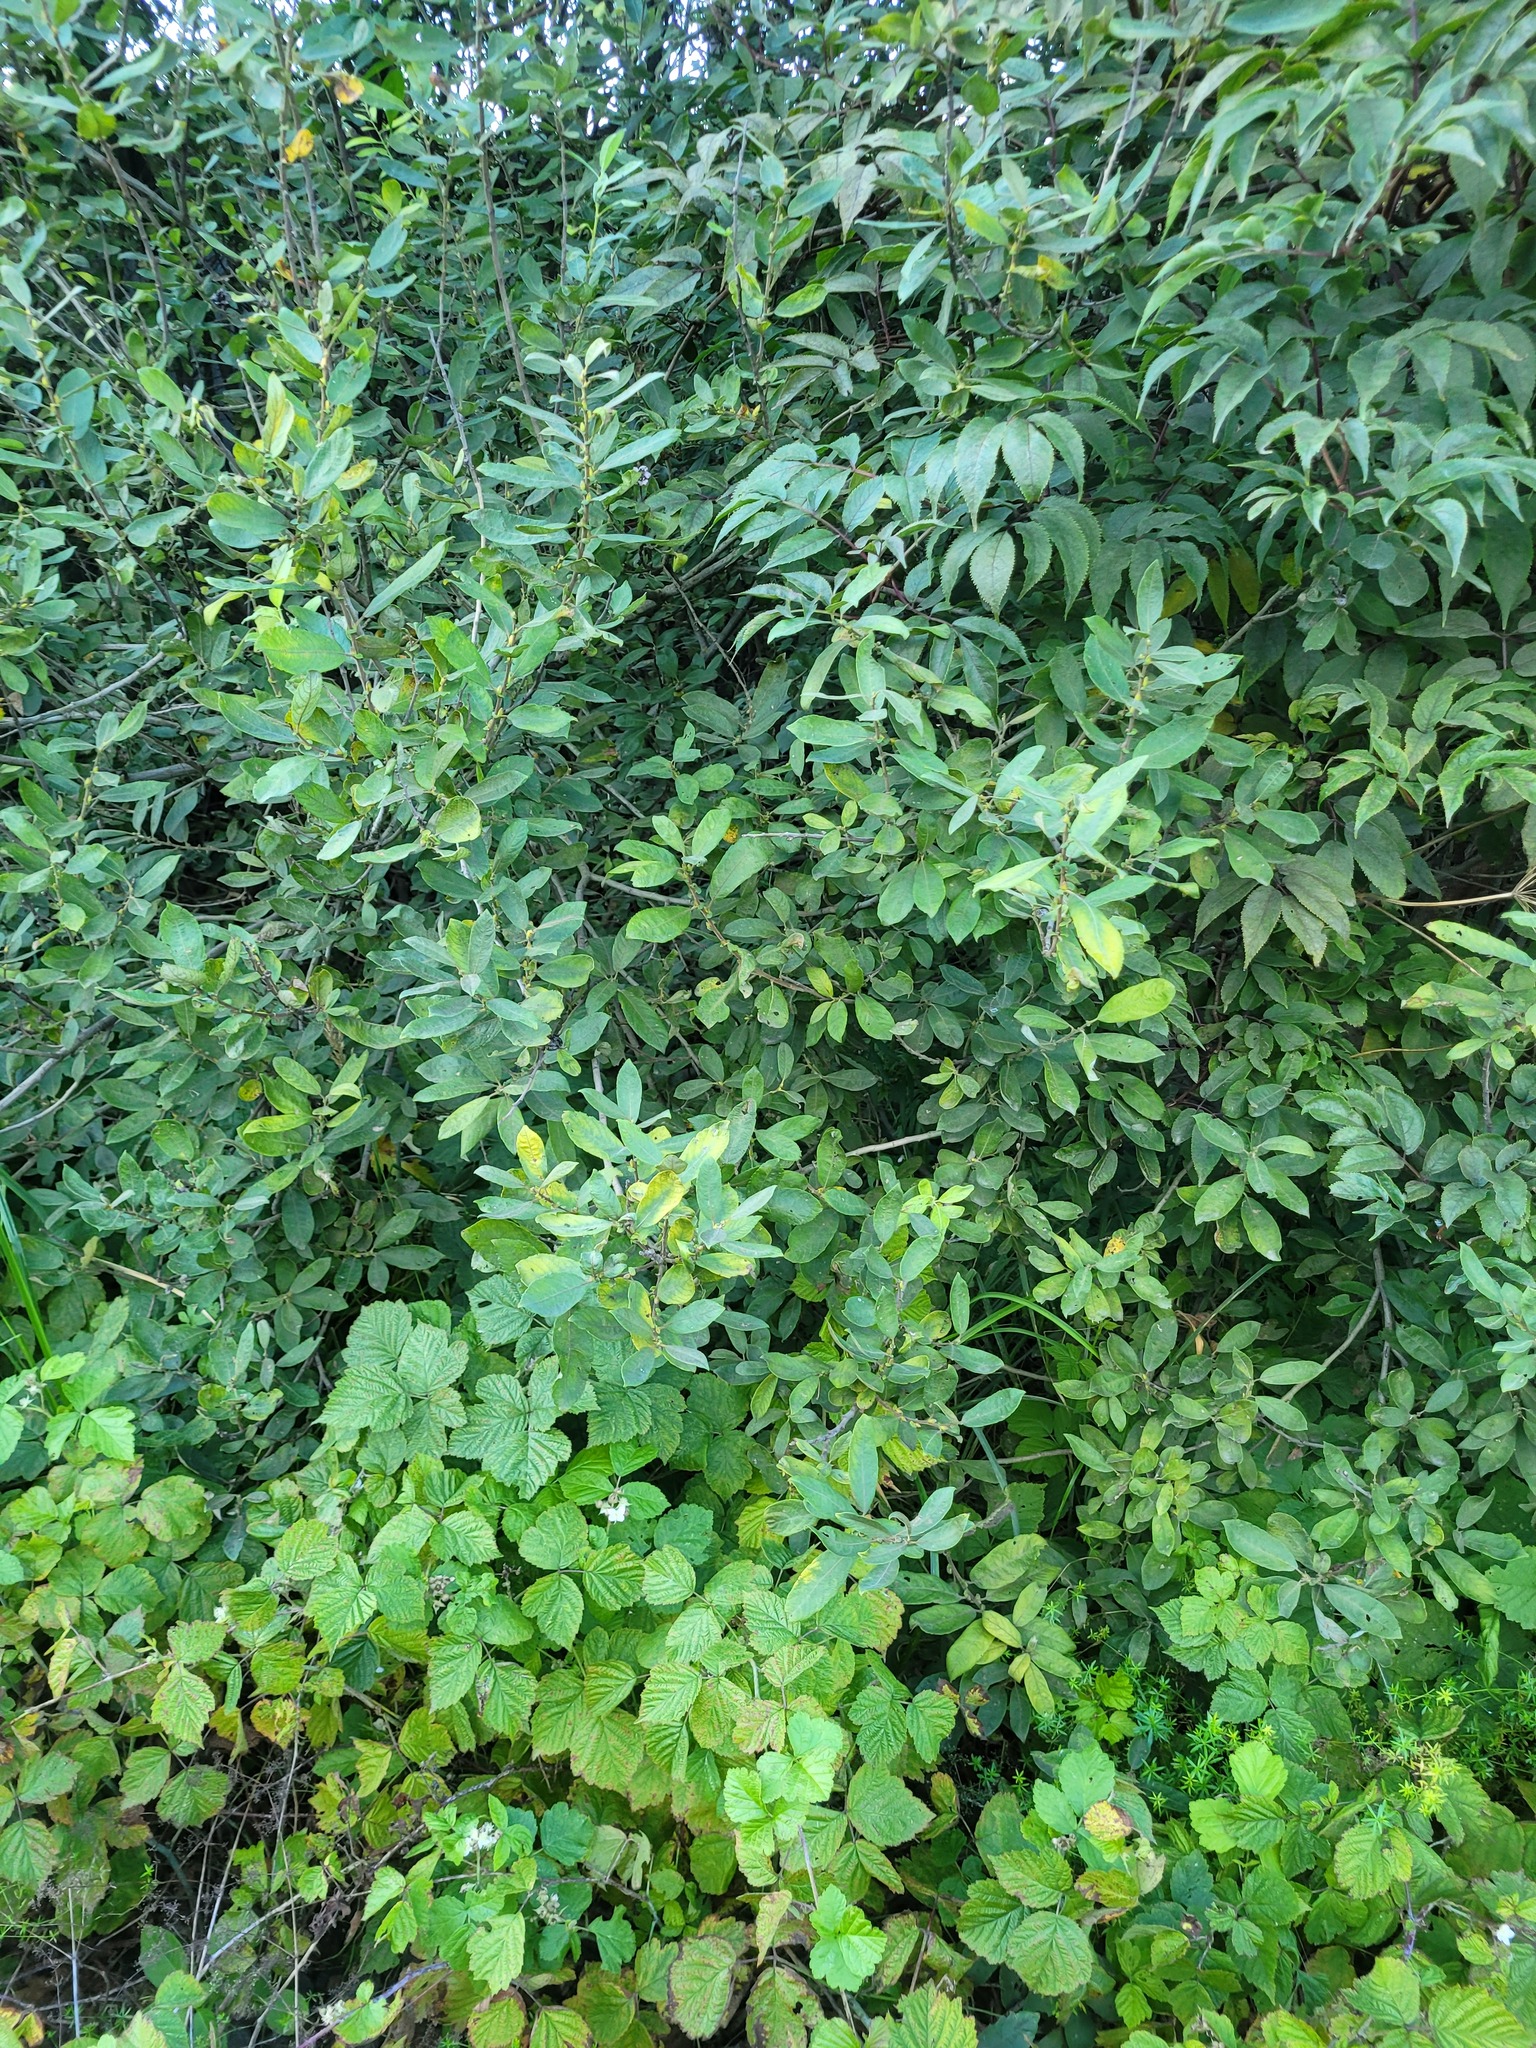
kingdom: Plantae
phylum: Tracheophyta
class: Magnoliopsida
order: Malpighiales
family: Salicaceae
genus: Salix
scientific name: Salix cinerea
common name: Common sallow
